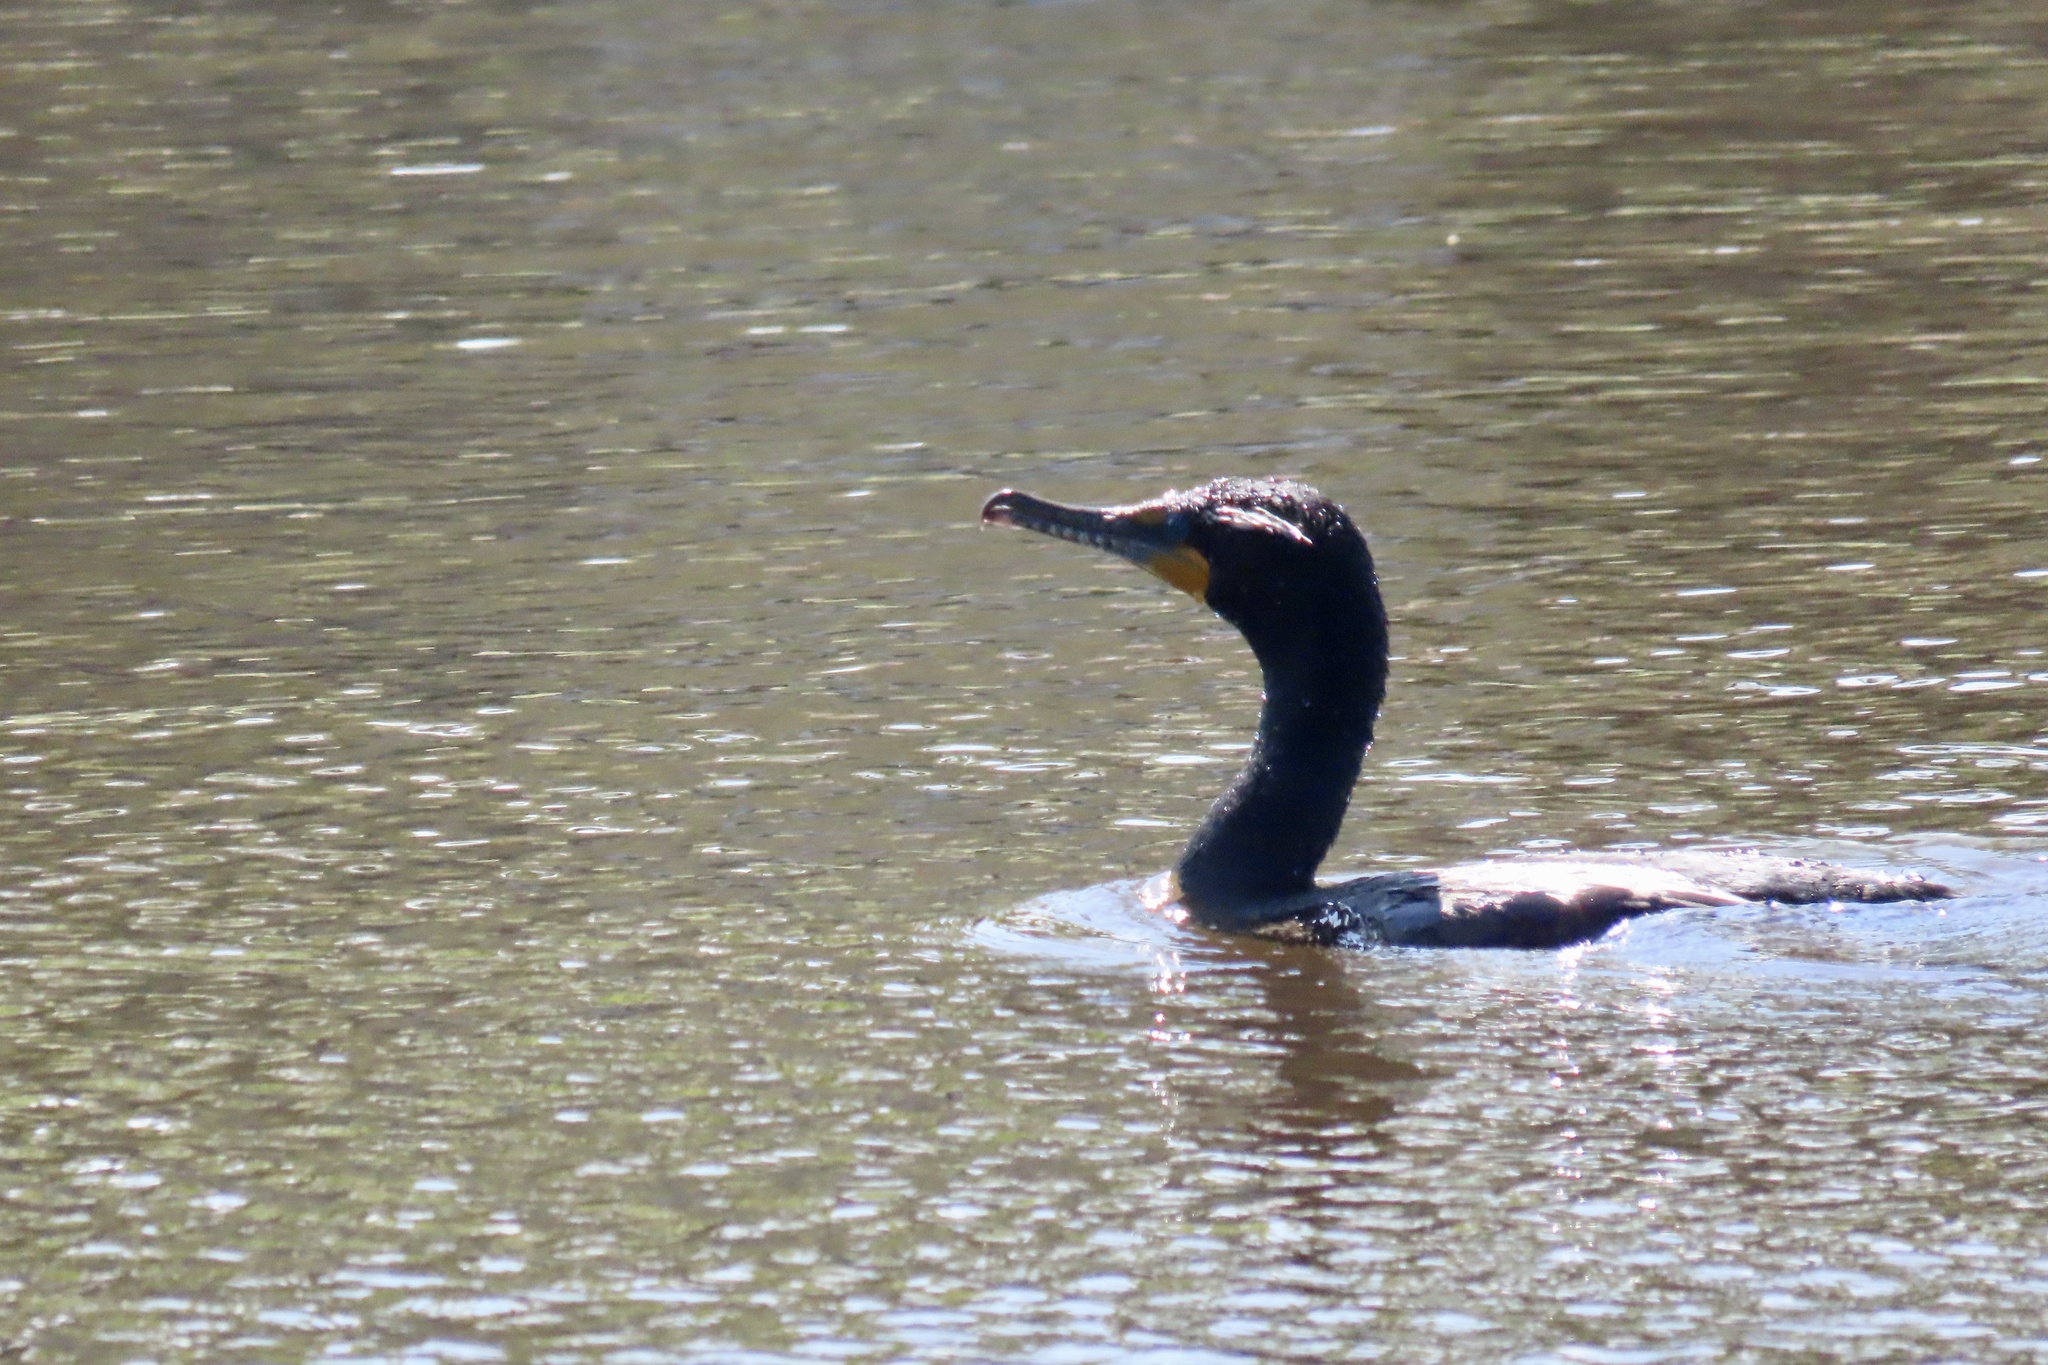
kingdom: Animalia
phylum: Chordata
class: Aves
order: Suliformes
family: Phalacrocoracidae
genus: Phalacrocorax
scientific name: Phalacrocorax auritus
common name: Double-crested cormorant
